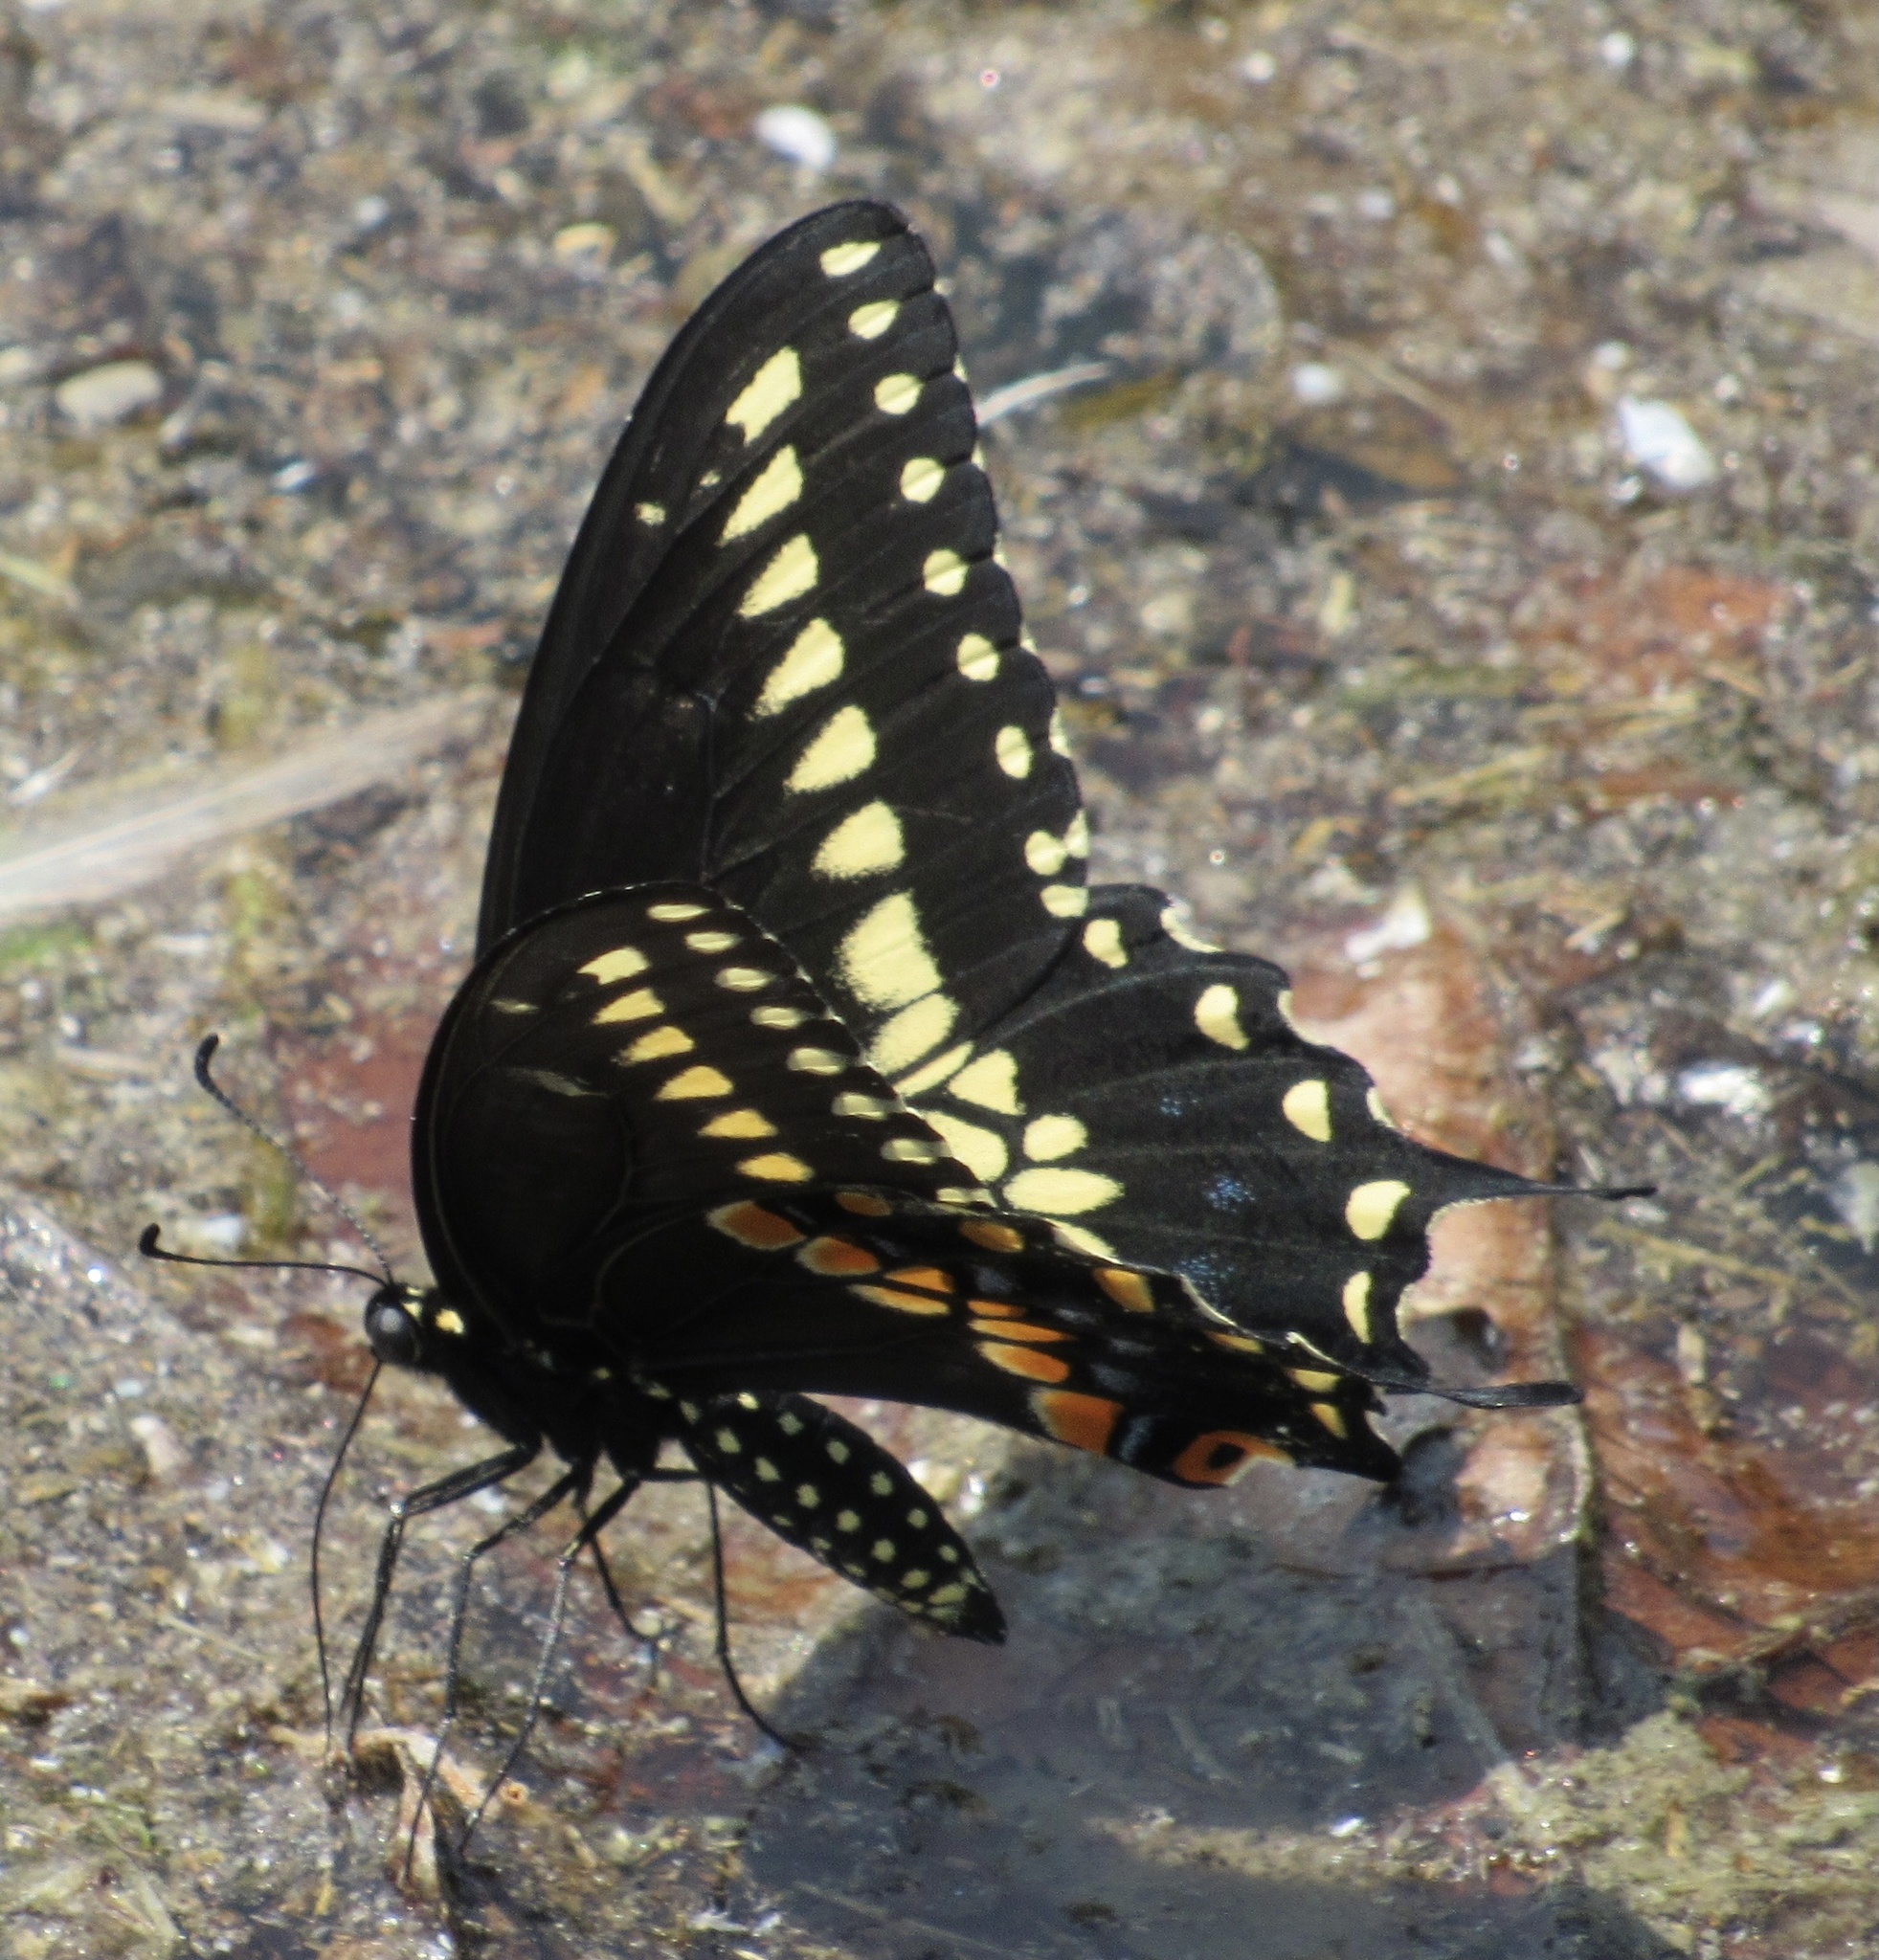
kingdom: Animalia
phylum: Arthropoda
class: Insecta
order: Lepidoptera
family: Papilionidae
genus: Papilio
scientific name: Papilio polyxenes
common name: Black swallowtail
